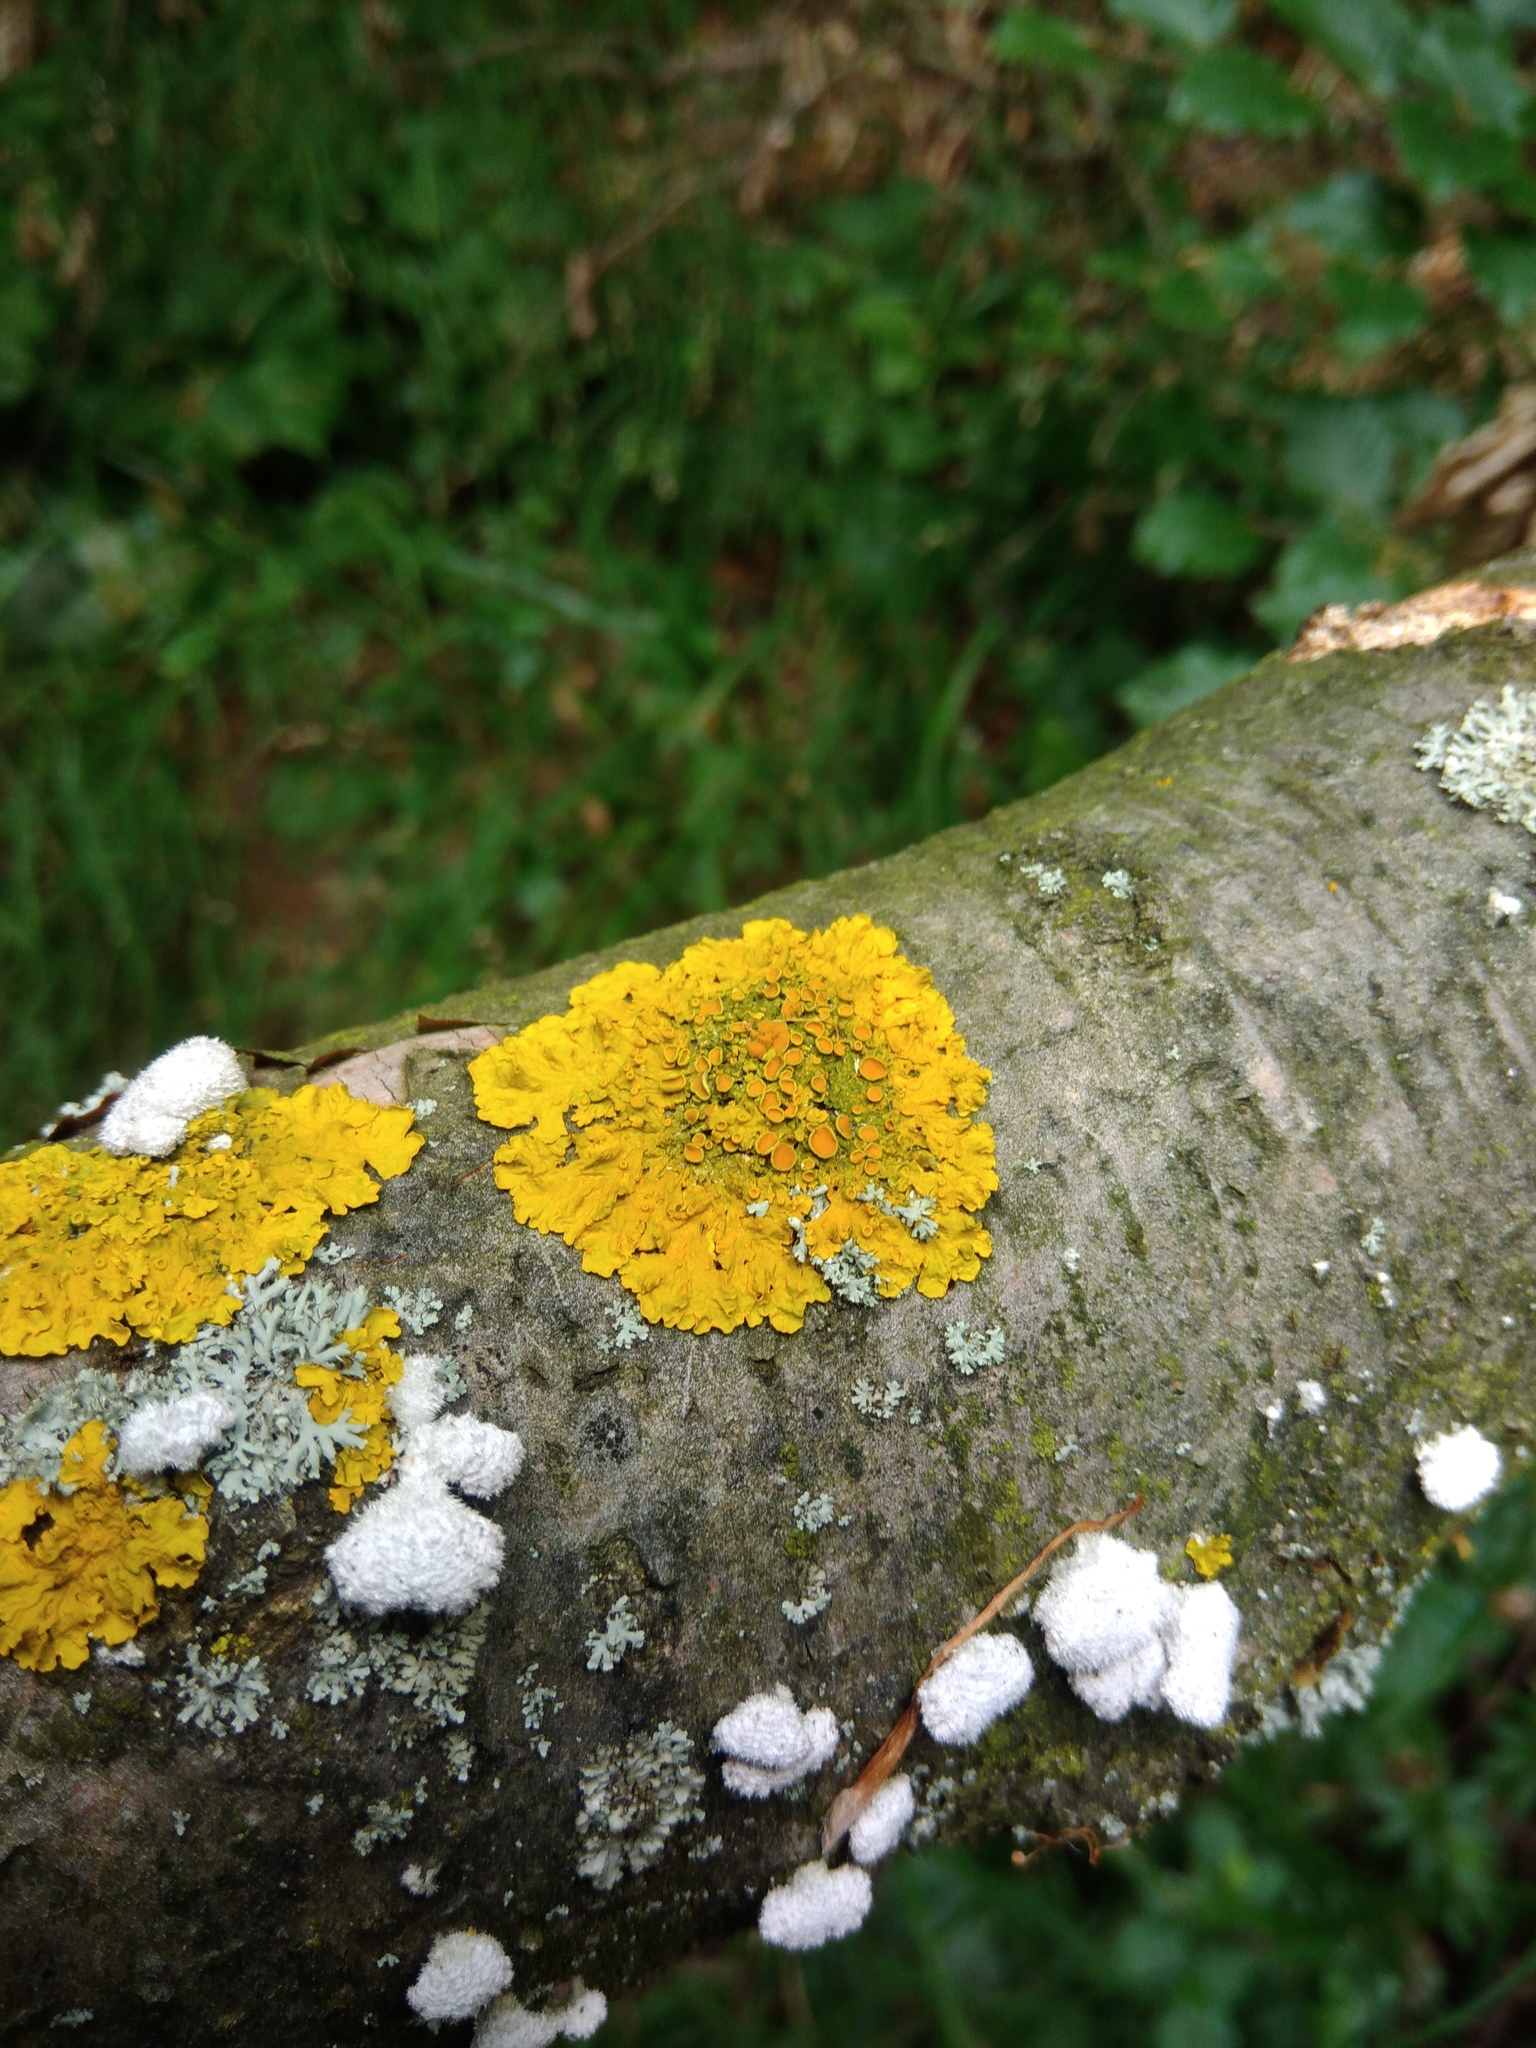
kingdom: Fungi
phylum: Ascomycota
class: Lecanoromycetes
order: Teloschistales
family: Teloschistaceae
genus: Xanthoria
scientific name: Xanthoria parietina
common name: Common orange lichen
